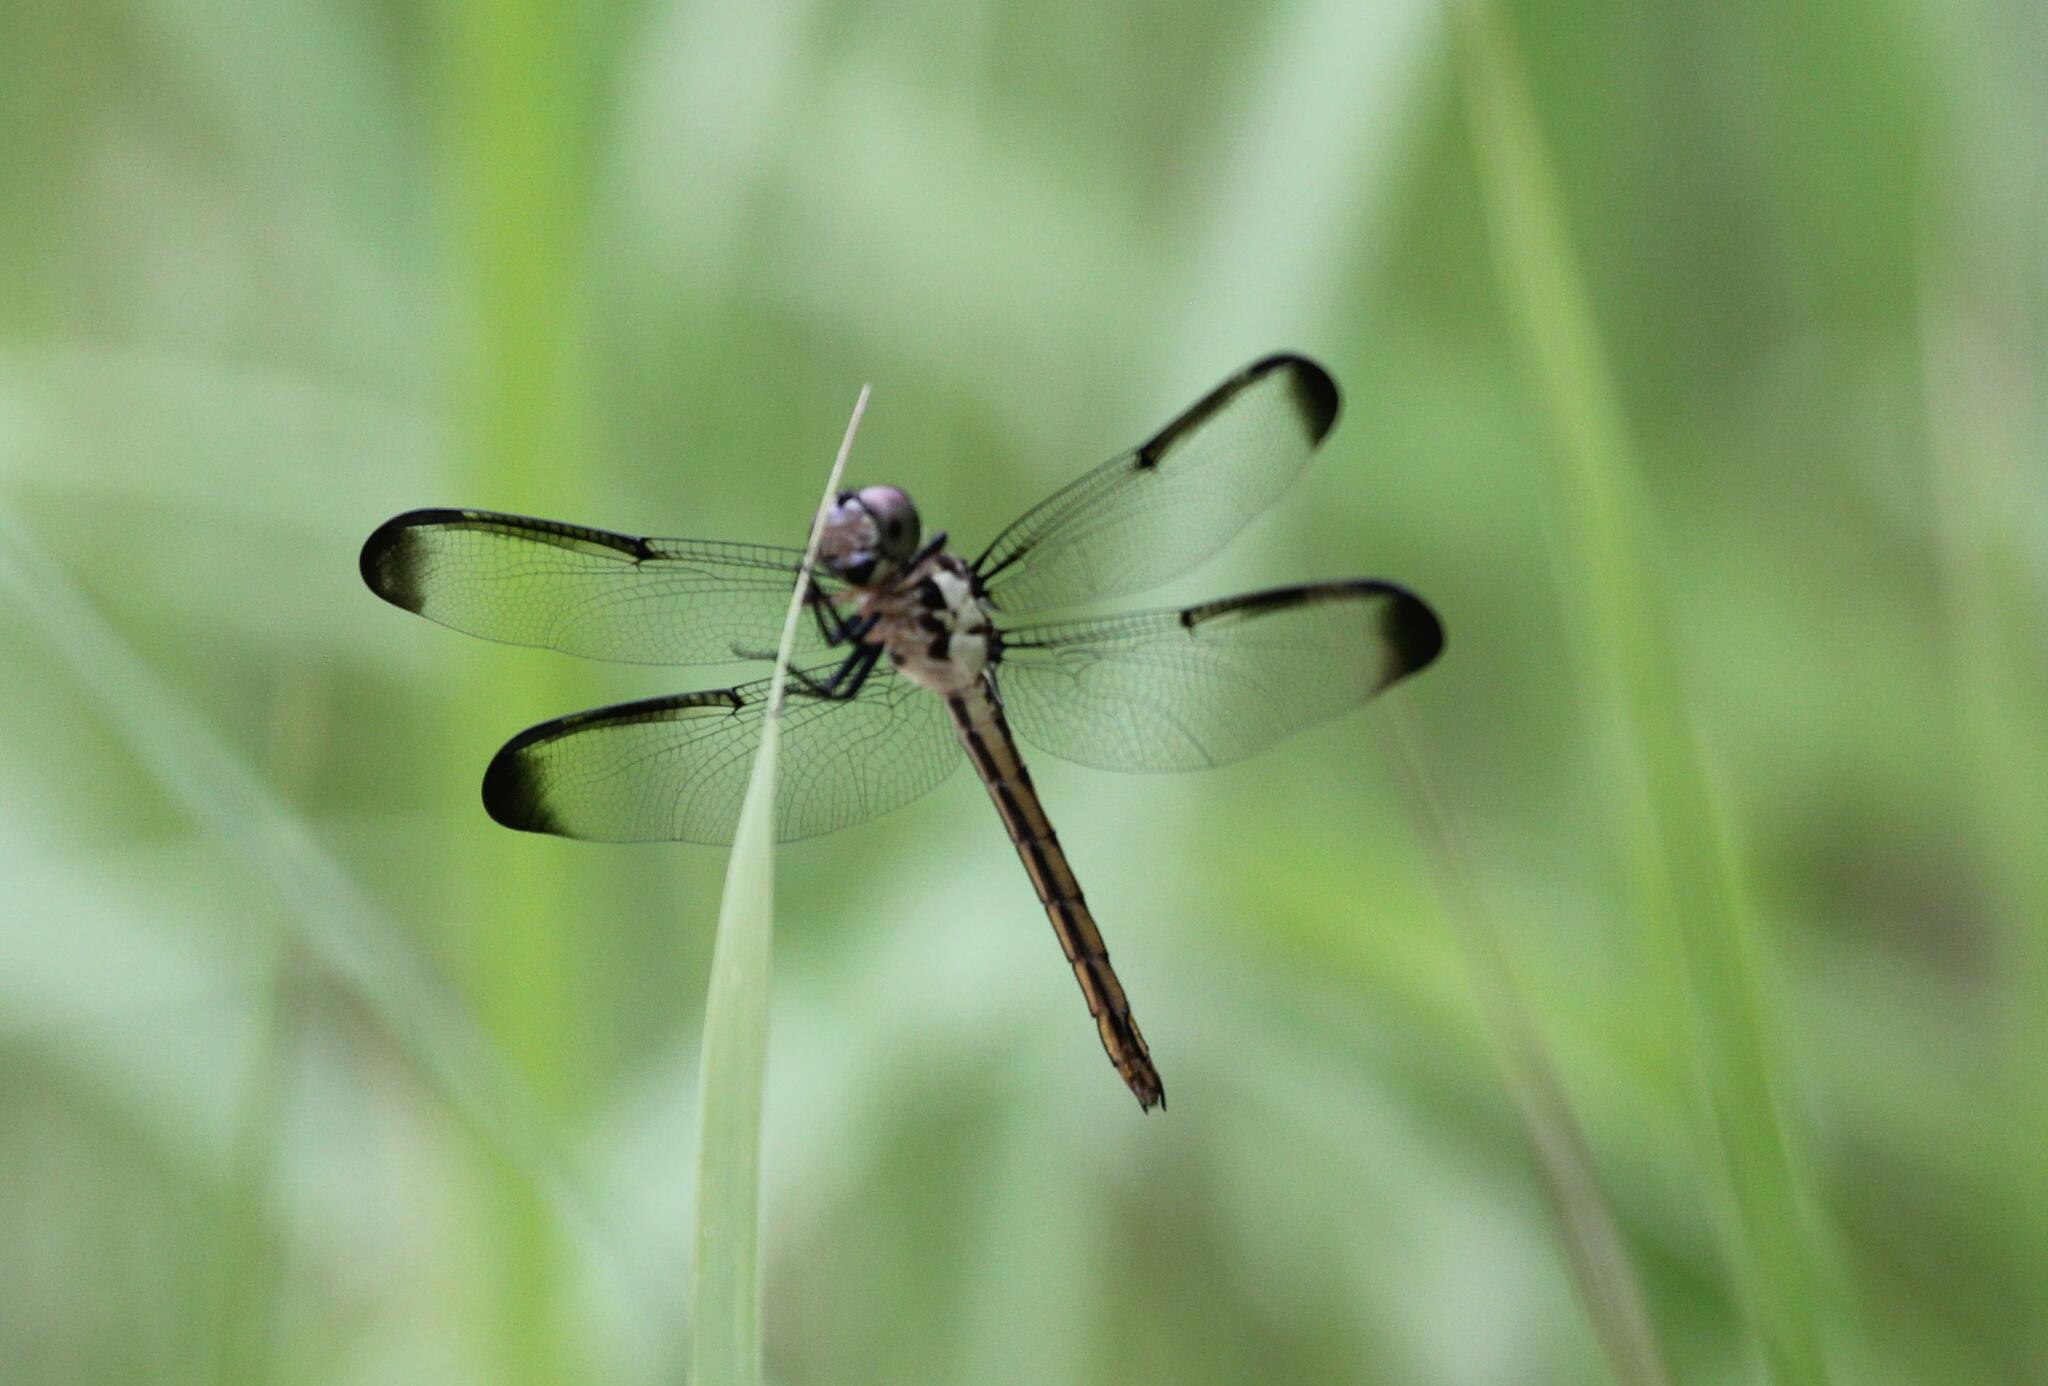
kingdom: Animalia
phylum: Arthropoda
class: Insecta
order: Odonata
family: Libellulidae
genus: Libellula
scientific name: Libellula incesta
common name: Slaty skimmer
